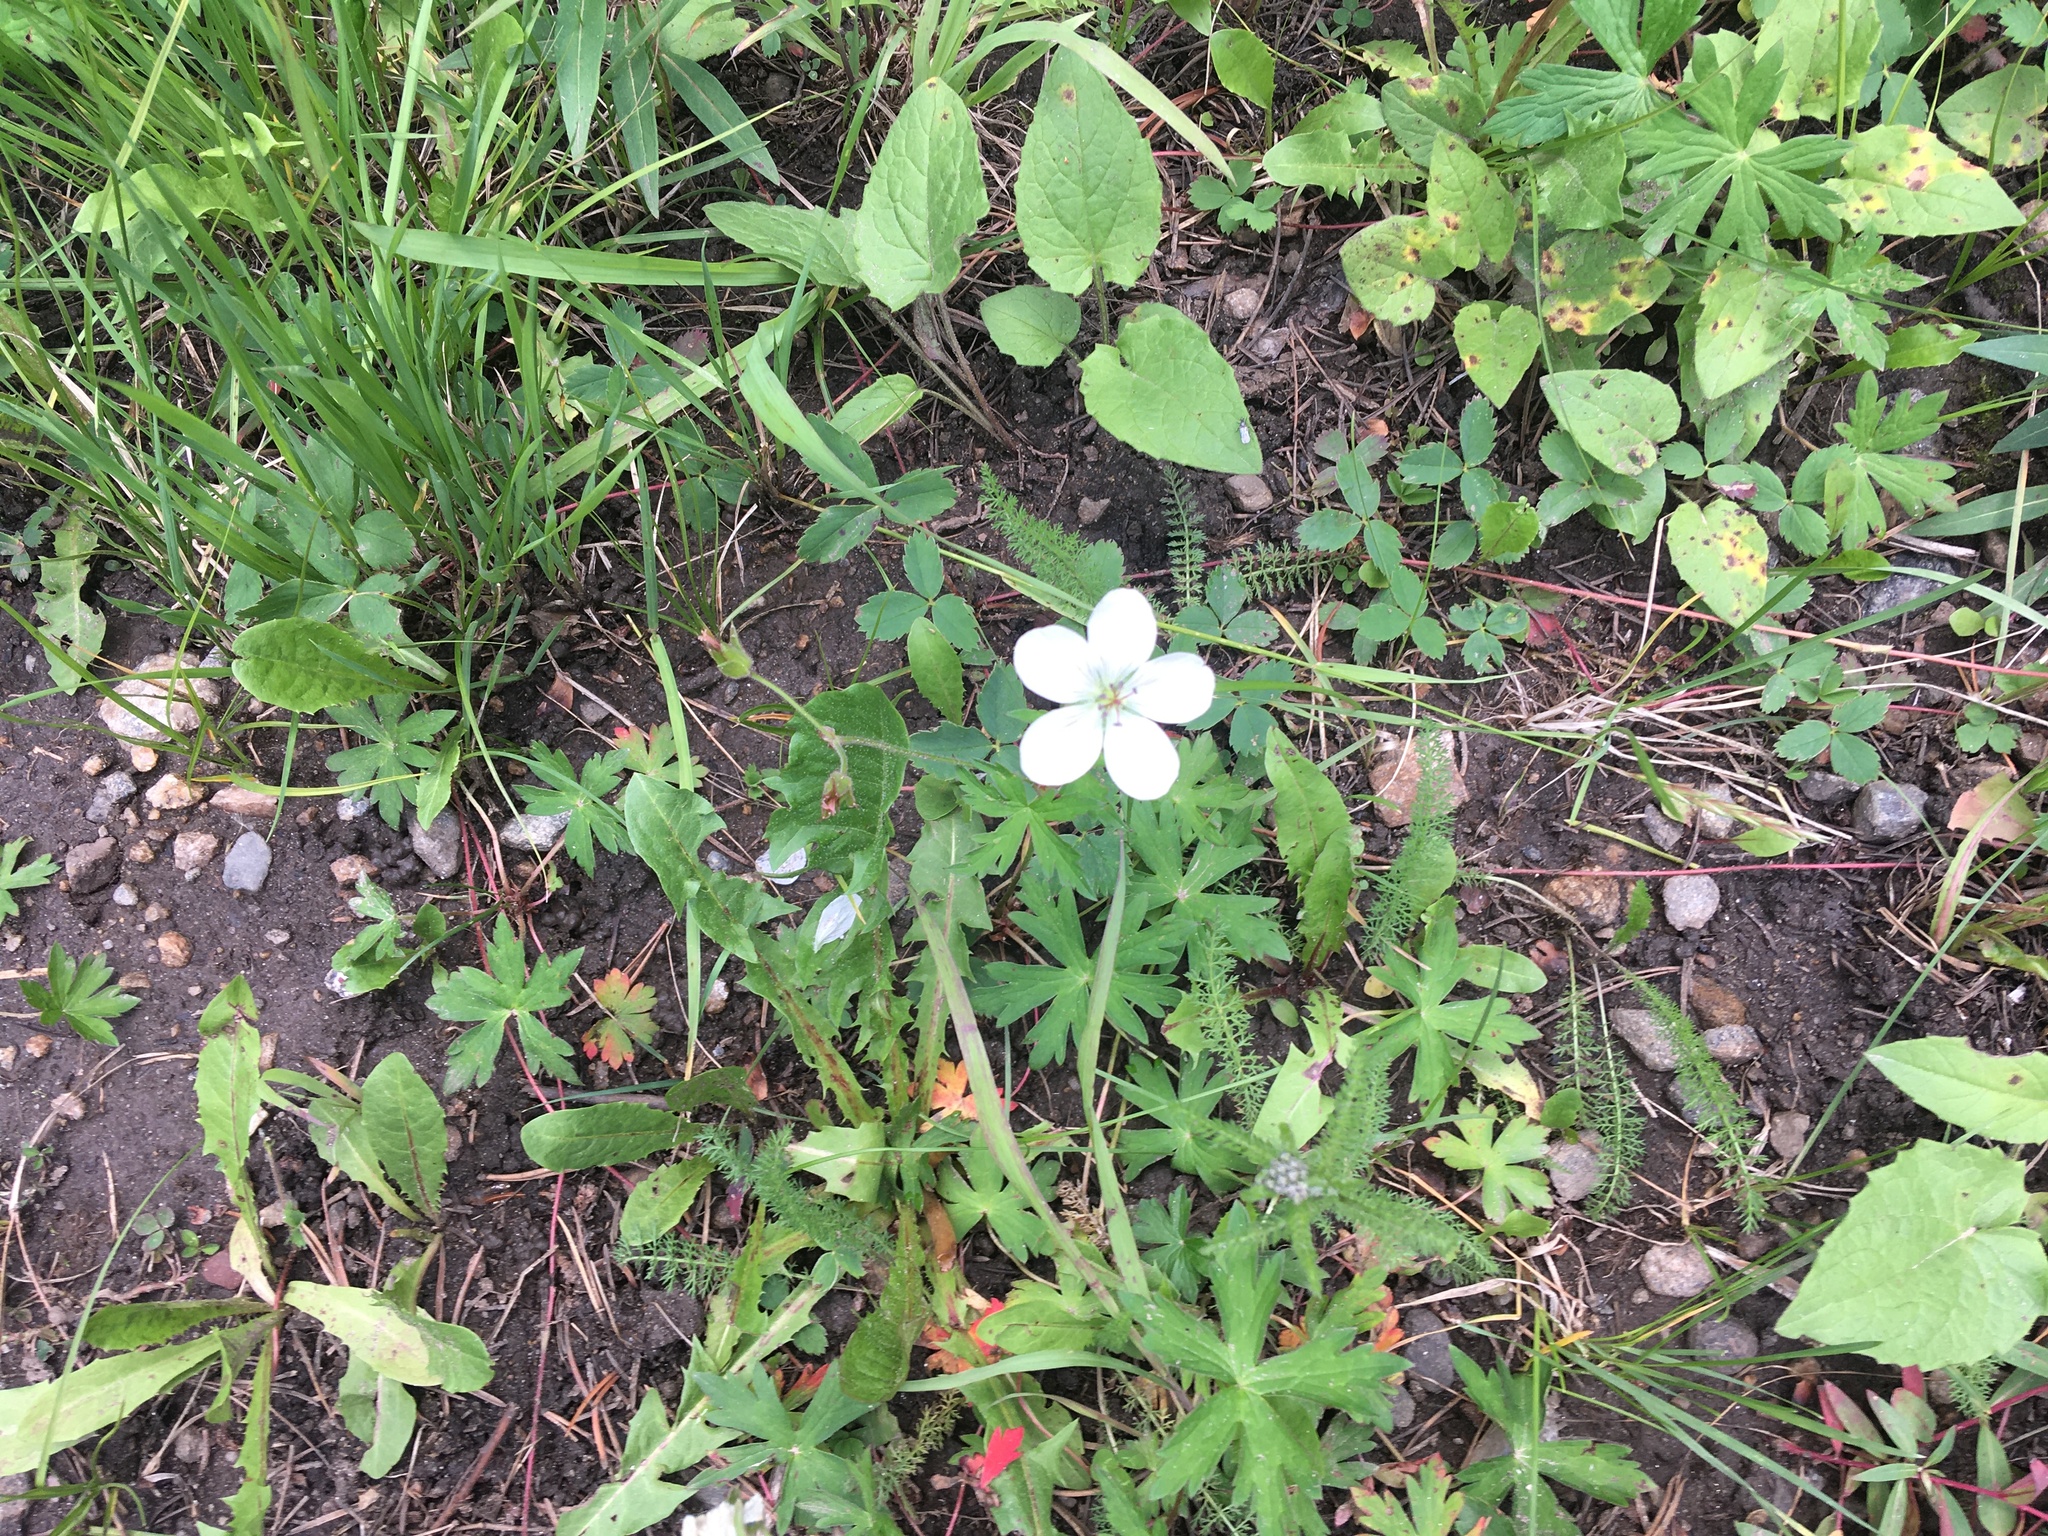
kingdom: Plantae
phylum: Tracheophyta
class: Magnoliopsida
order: Geraniales
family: Geraniaceae
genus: Geranium
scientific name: Geranium richardsonii
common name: Richardson's crane's-bill
